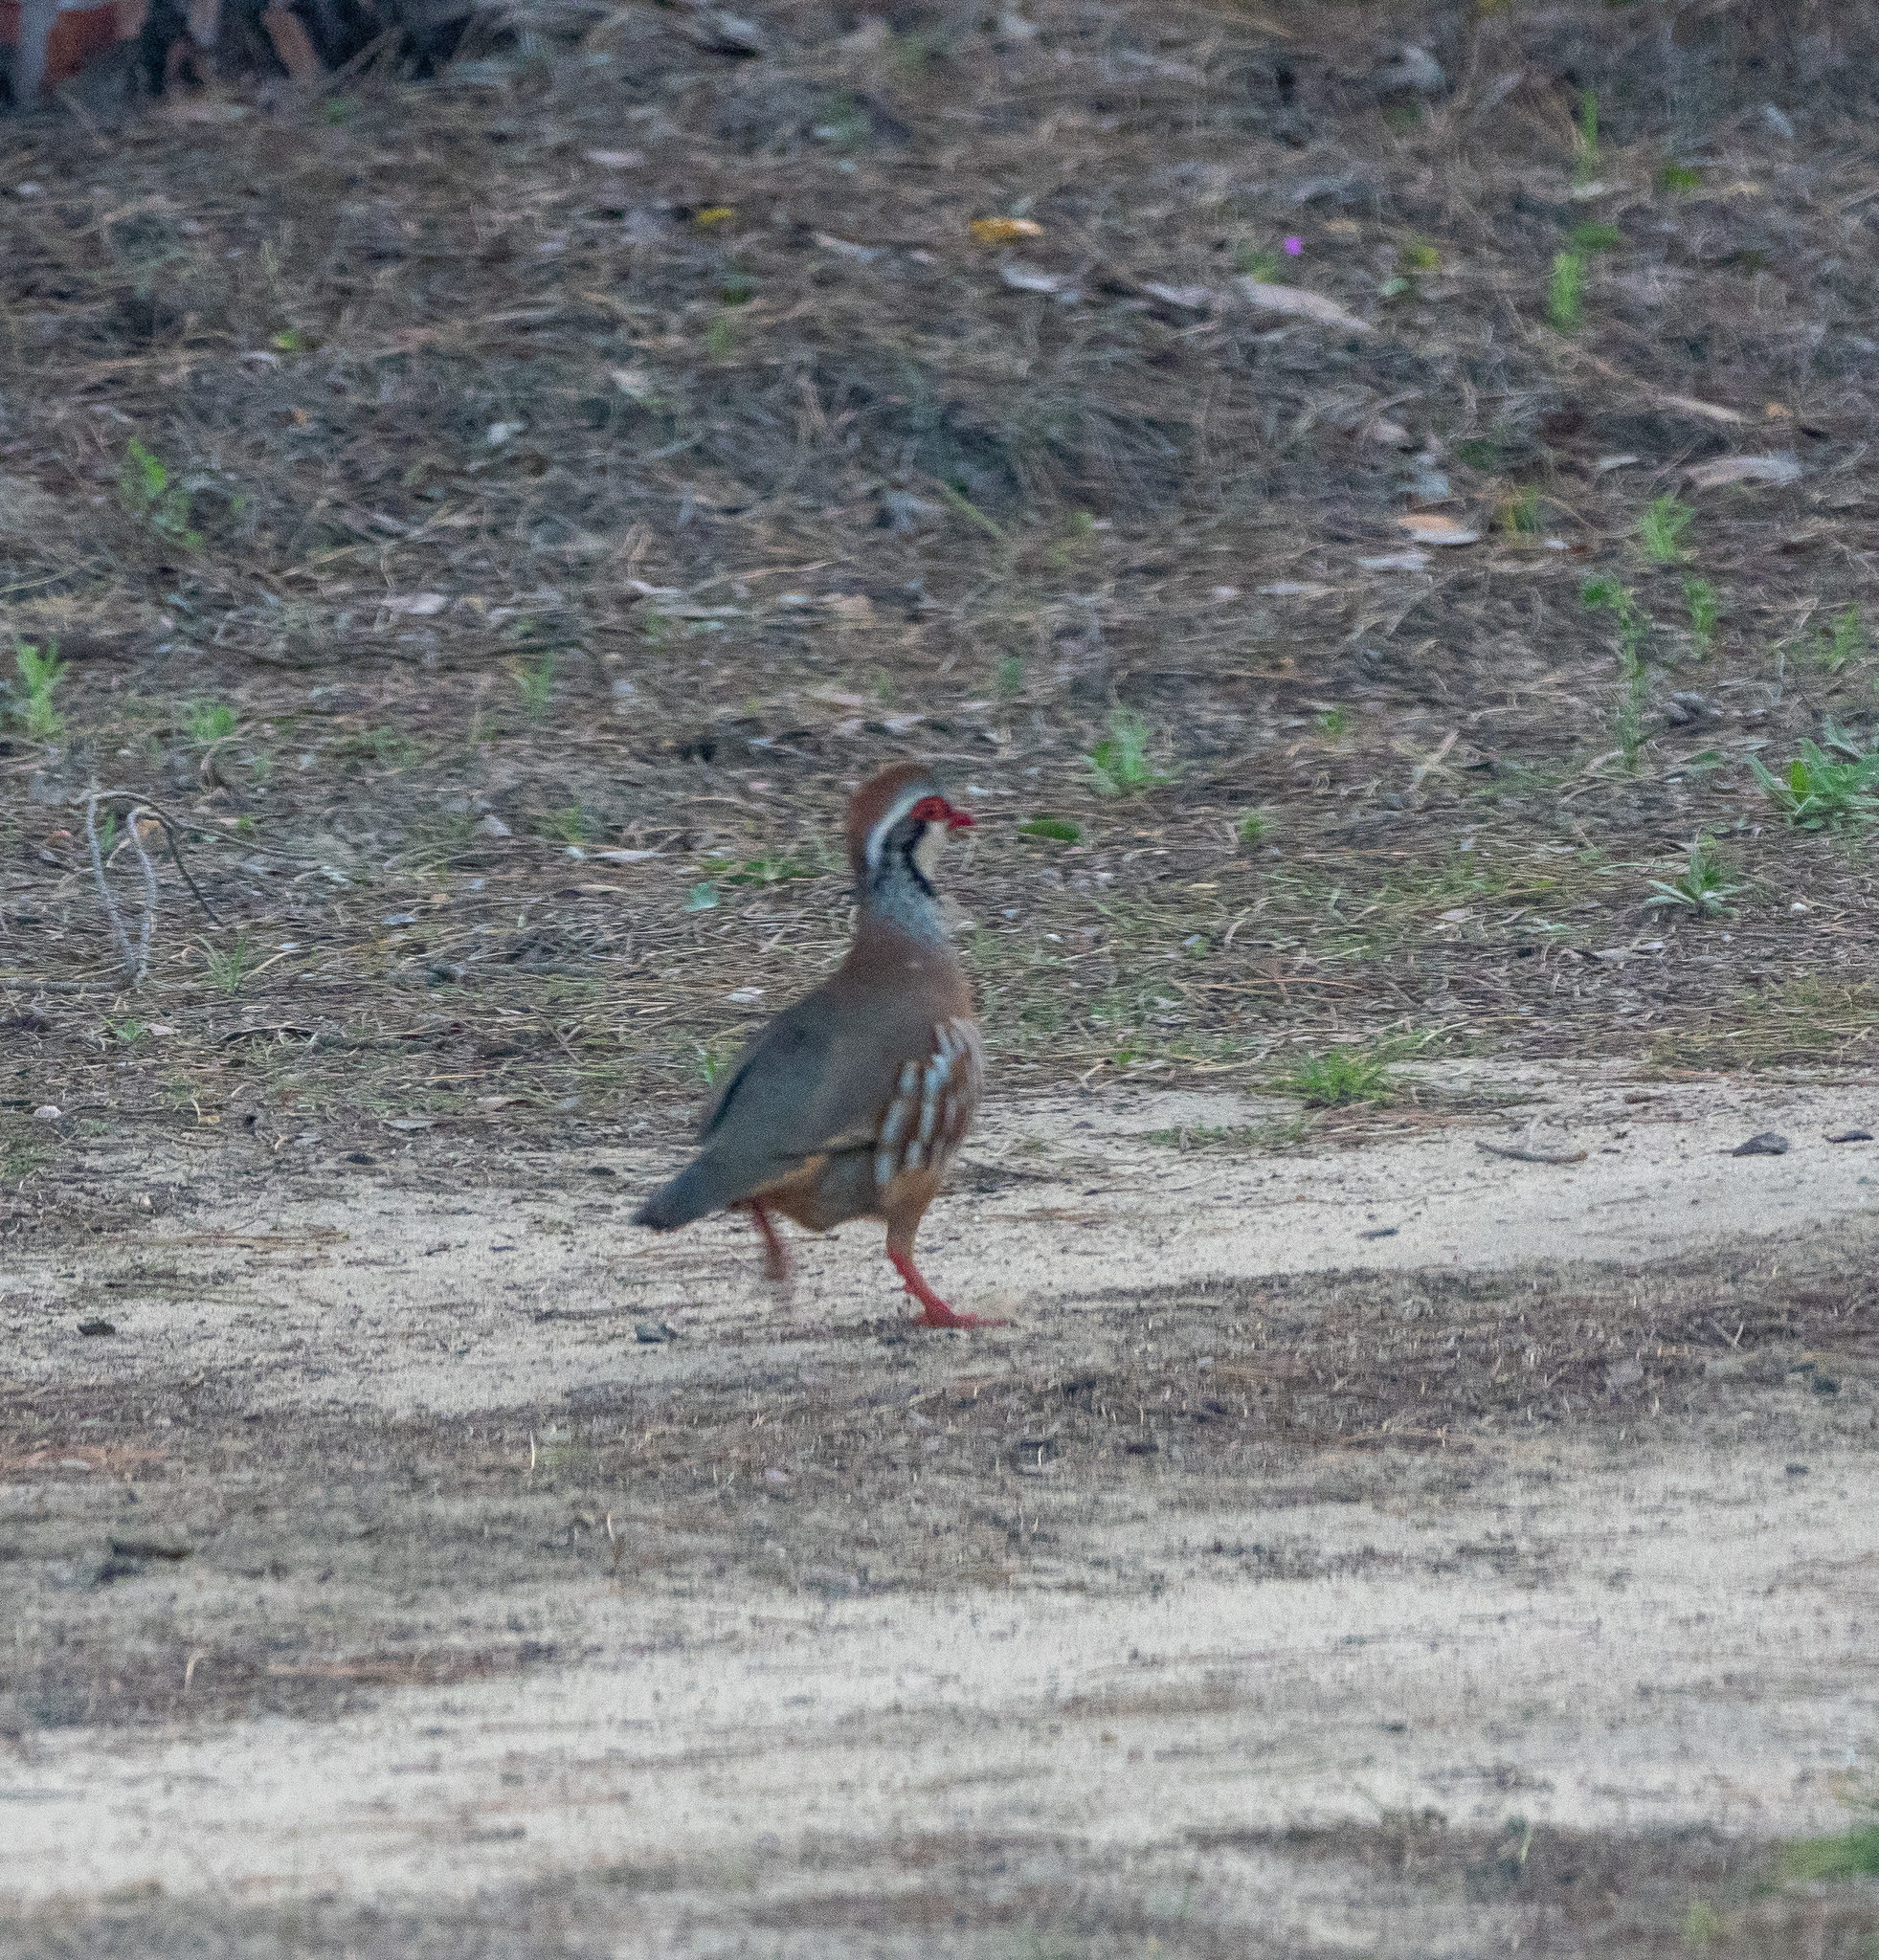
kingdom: Animalia
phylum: Chordata
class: Aves
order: Galliformes
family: Phasianidae
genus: Alectoris
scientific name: Alectoris rufa
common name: Red-legged partridge
